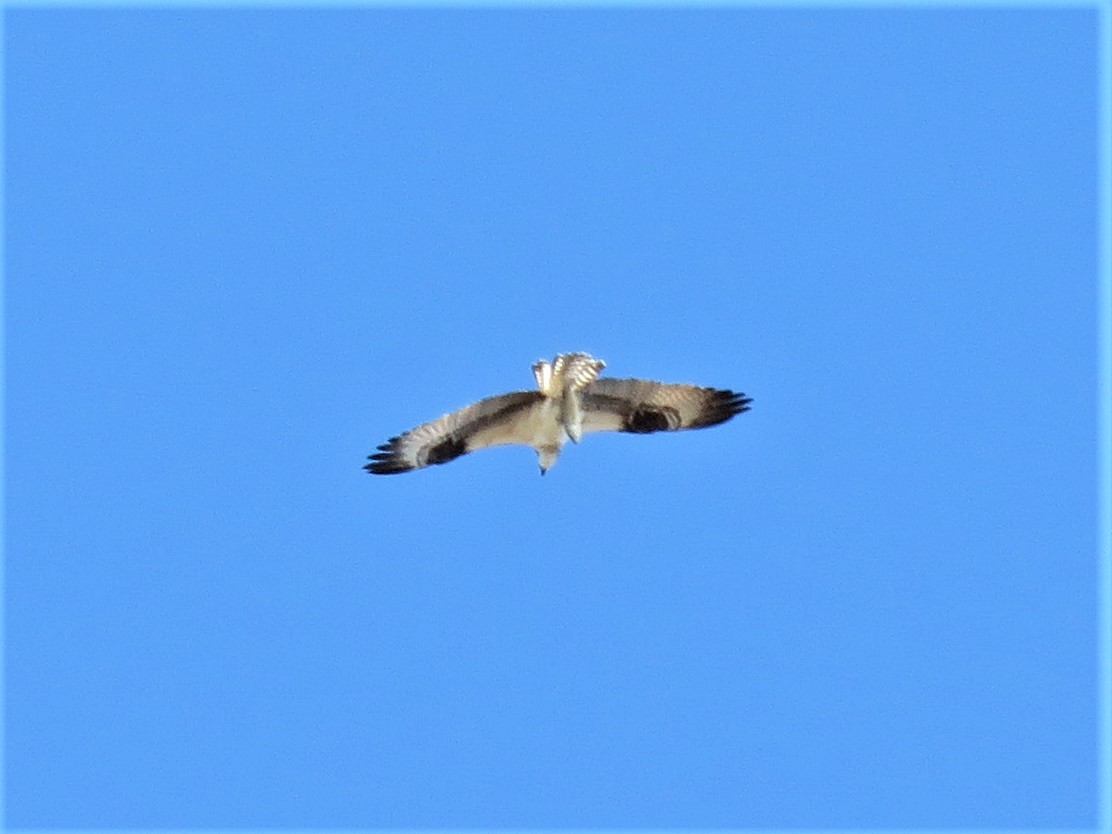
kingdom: Animalia
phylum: Chordata
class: Aves
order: Accipitriformes
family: Pandionidae
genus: Pandion
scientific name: Pandion haliaetus
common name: Osprey
